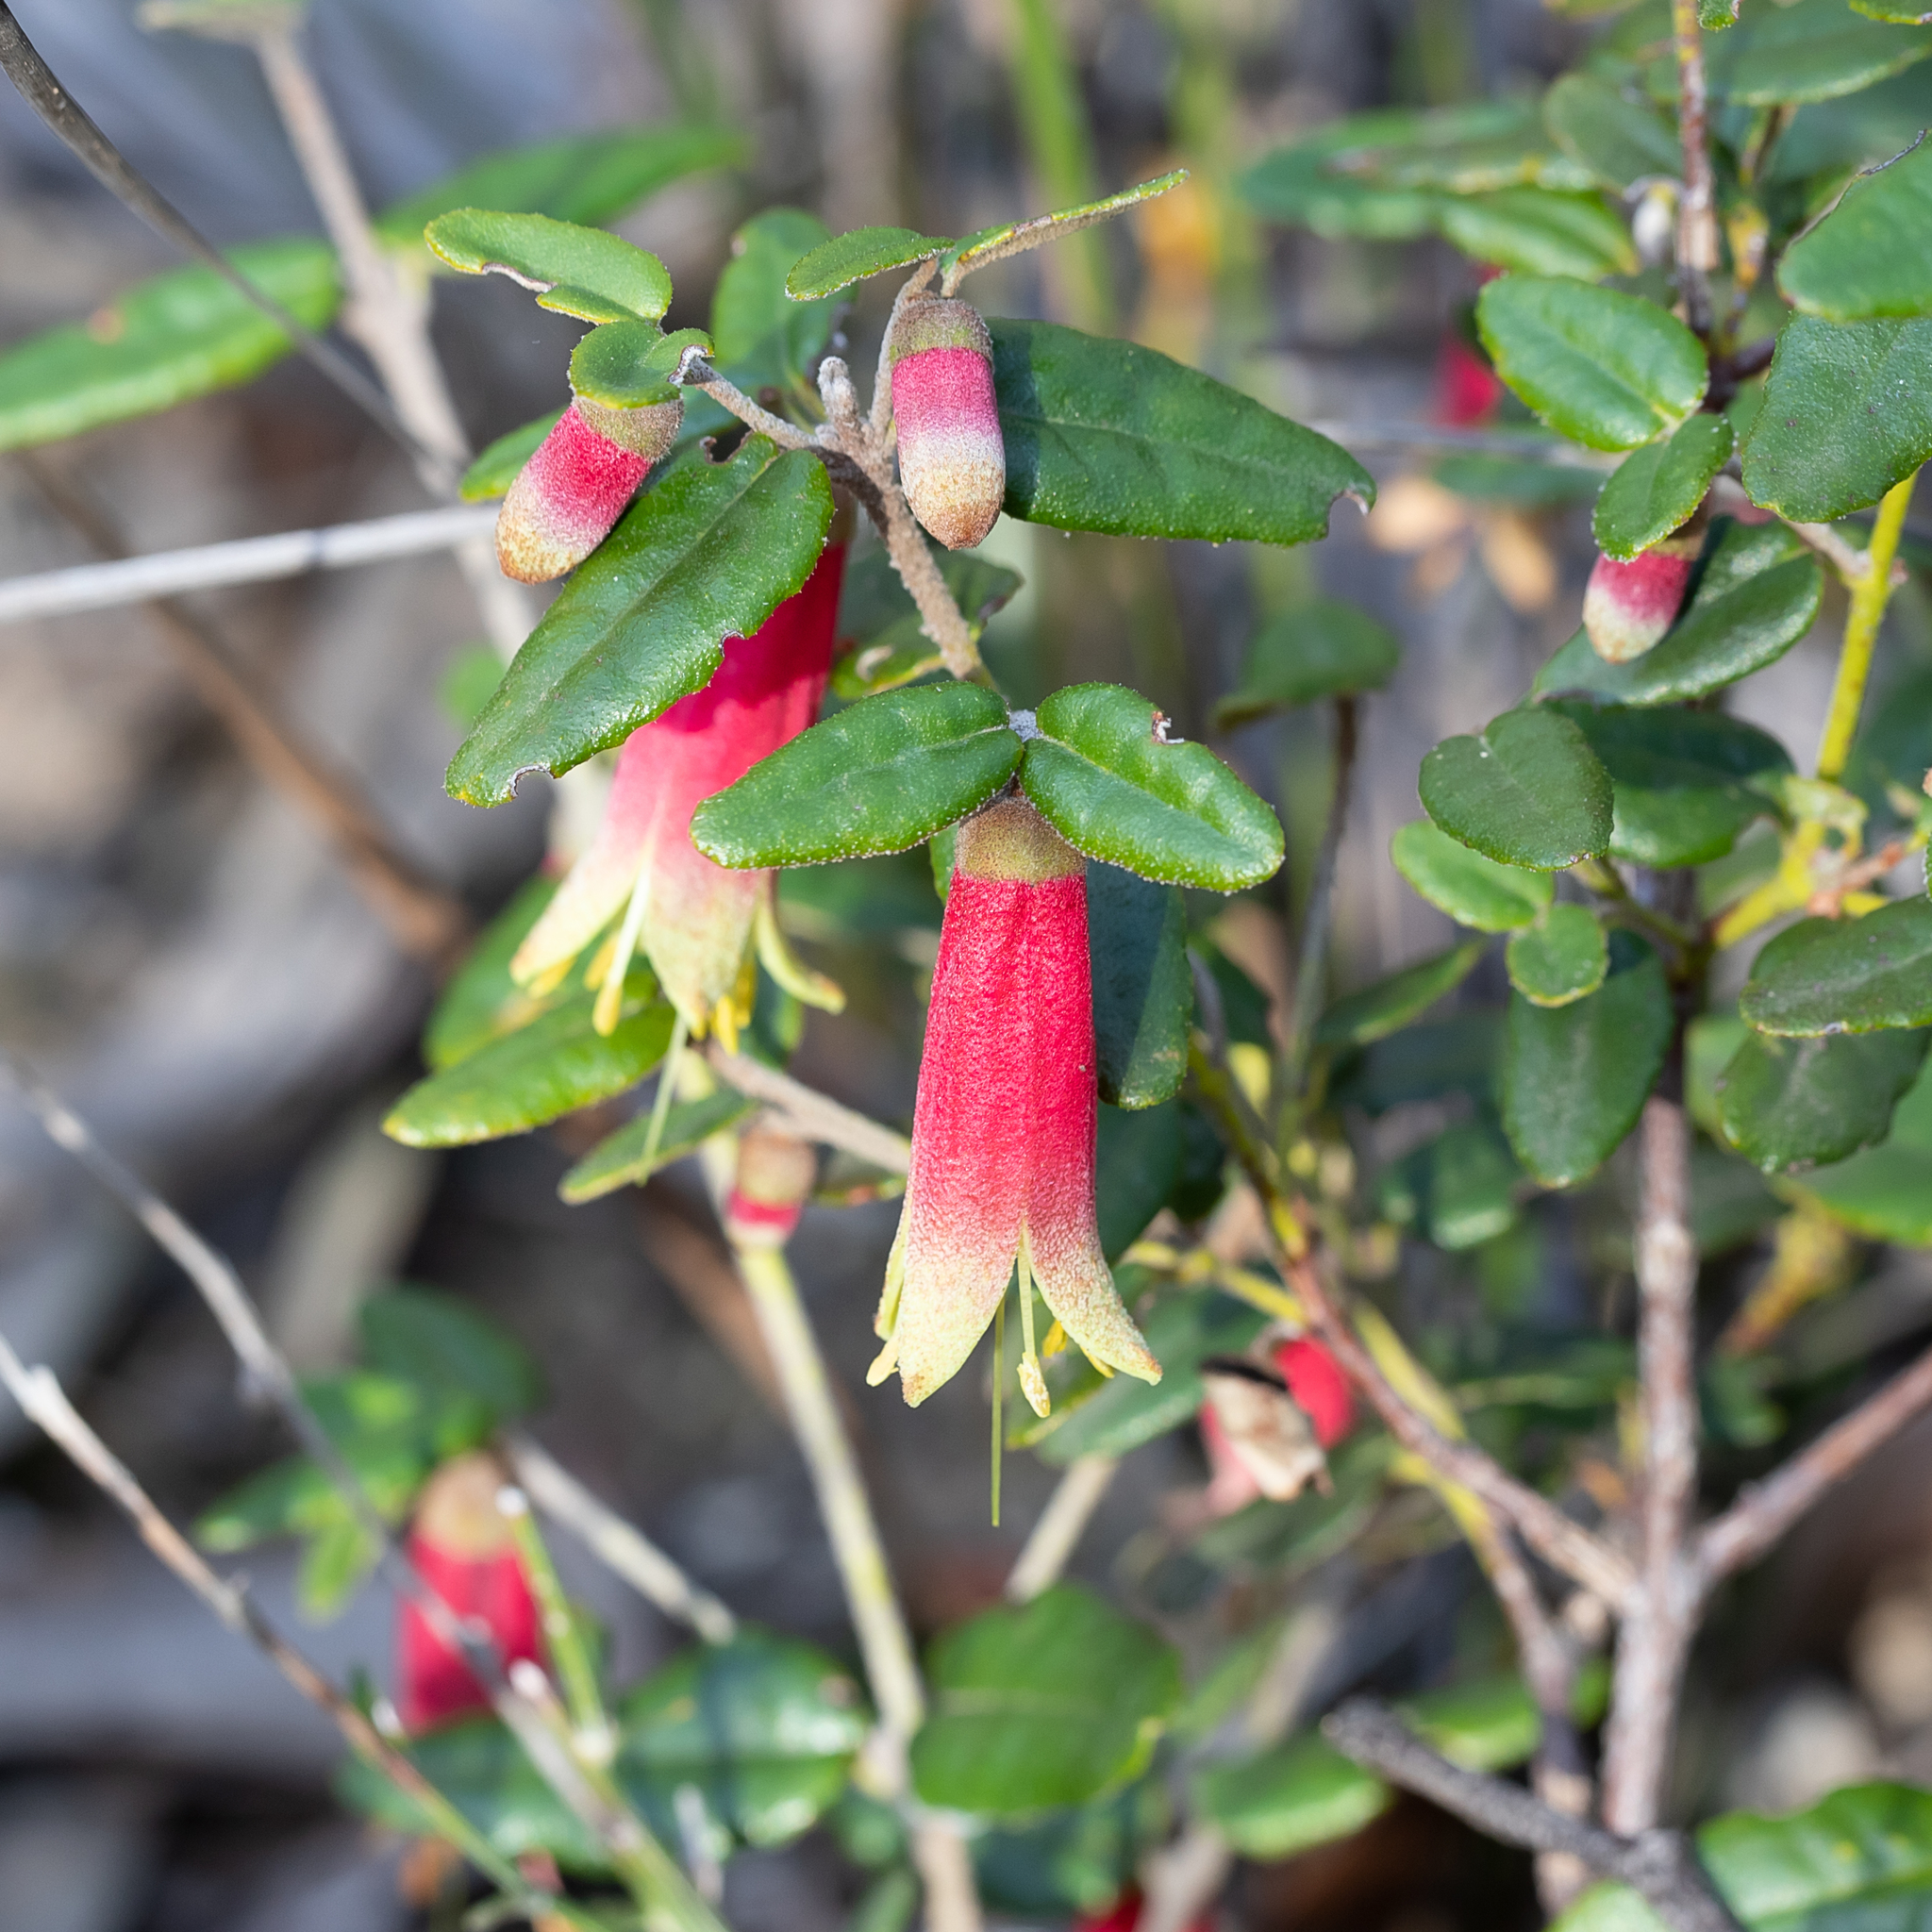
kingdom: Plantae
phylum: Tracheophyta
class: Magnoliopsida
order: Sapindales
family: Rutaceae
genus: Correa
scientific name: Correa reflexa
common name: Common correa
